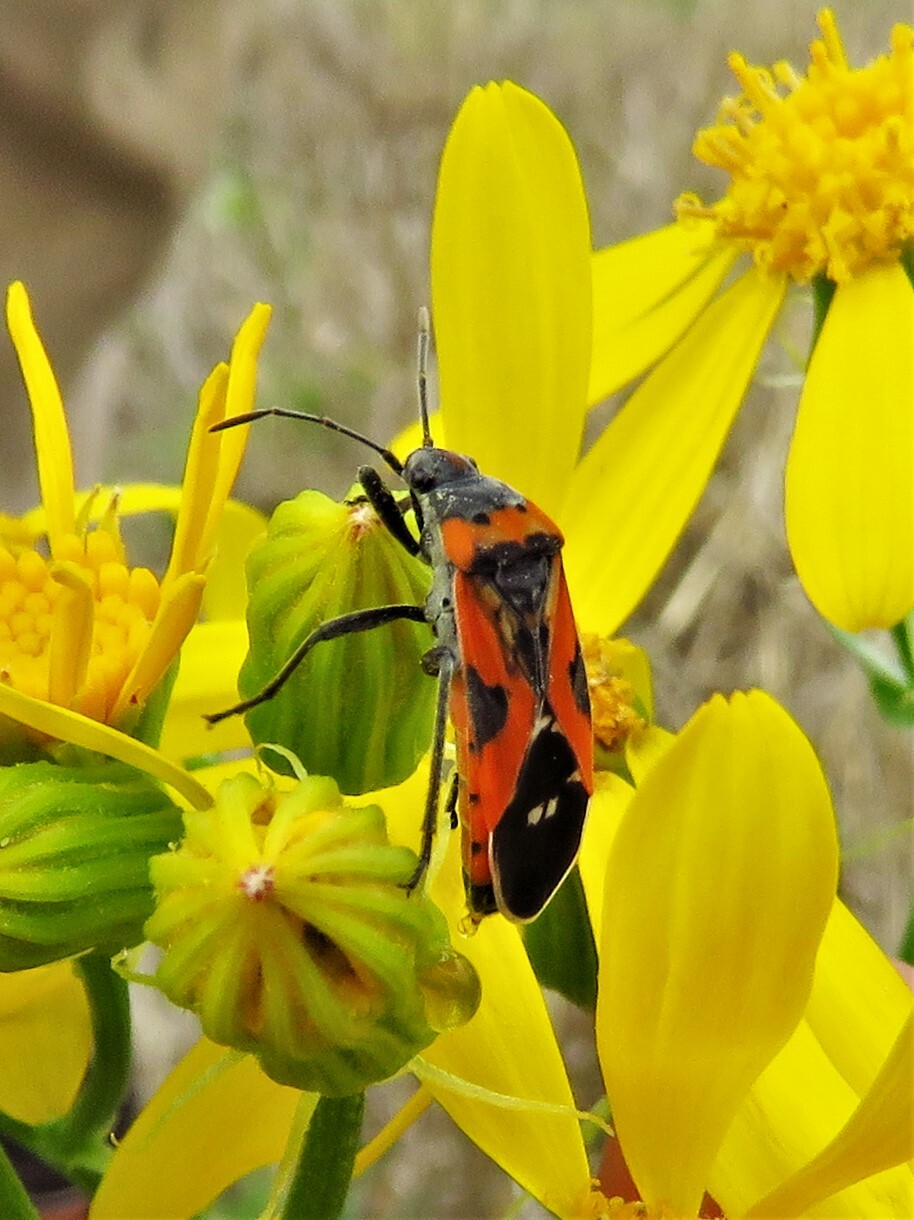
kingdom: Animalia
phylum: Arthropoda
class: Insecta
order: Hemiptera
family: Lygaeidae
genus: Lygaeus
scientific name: Lygaeus reclivatus
